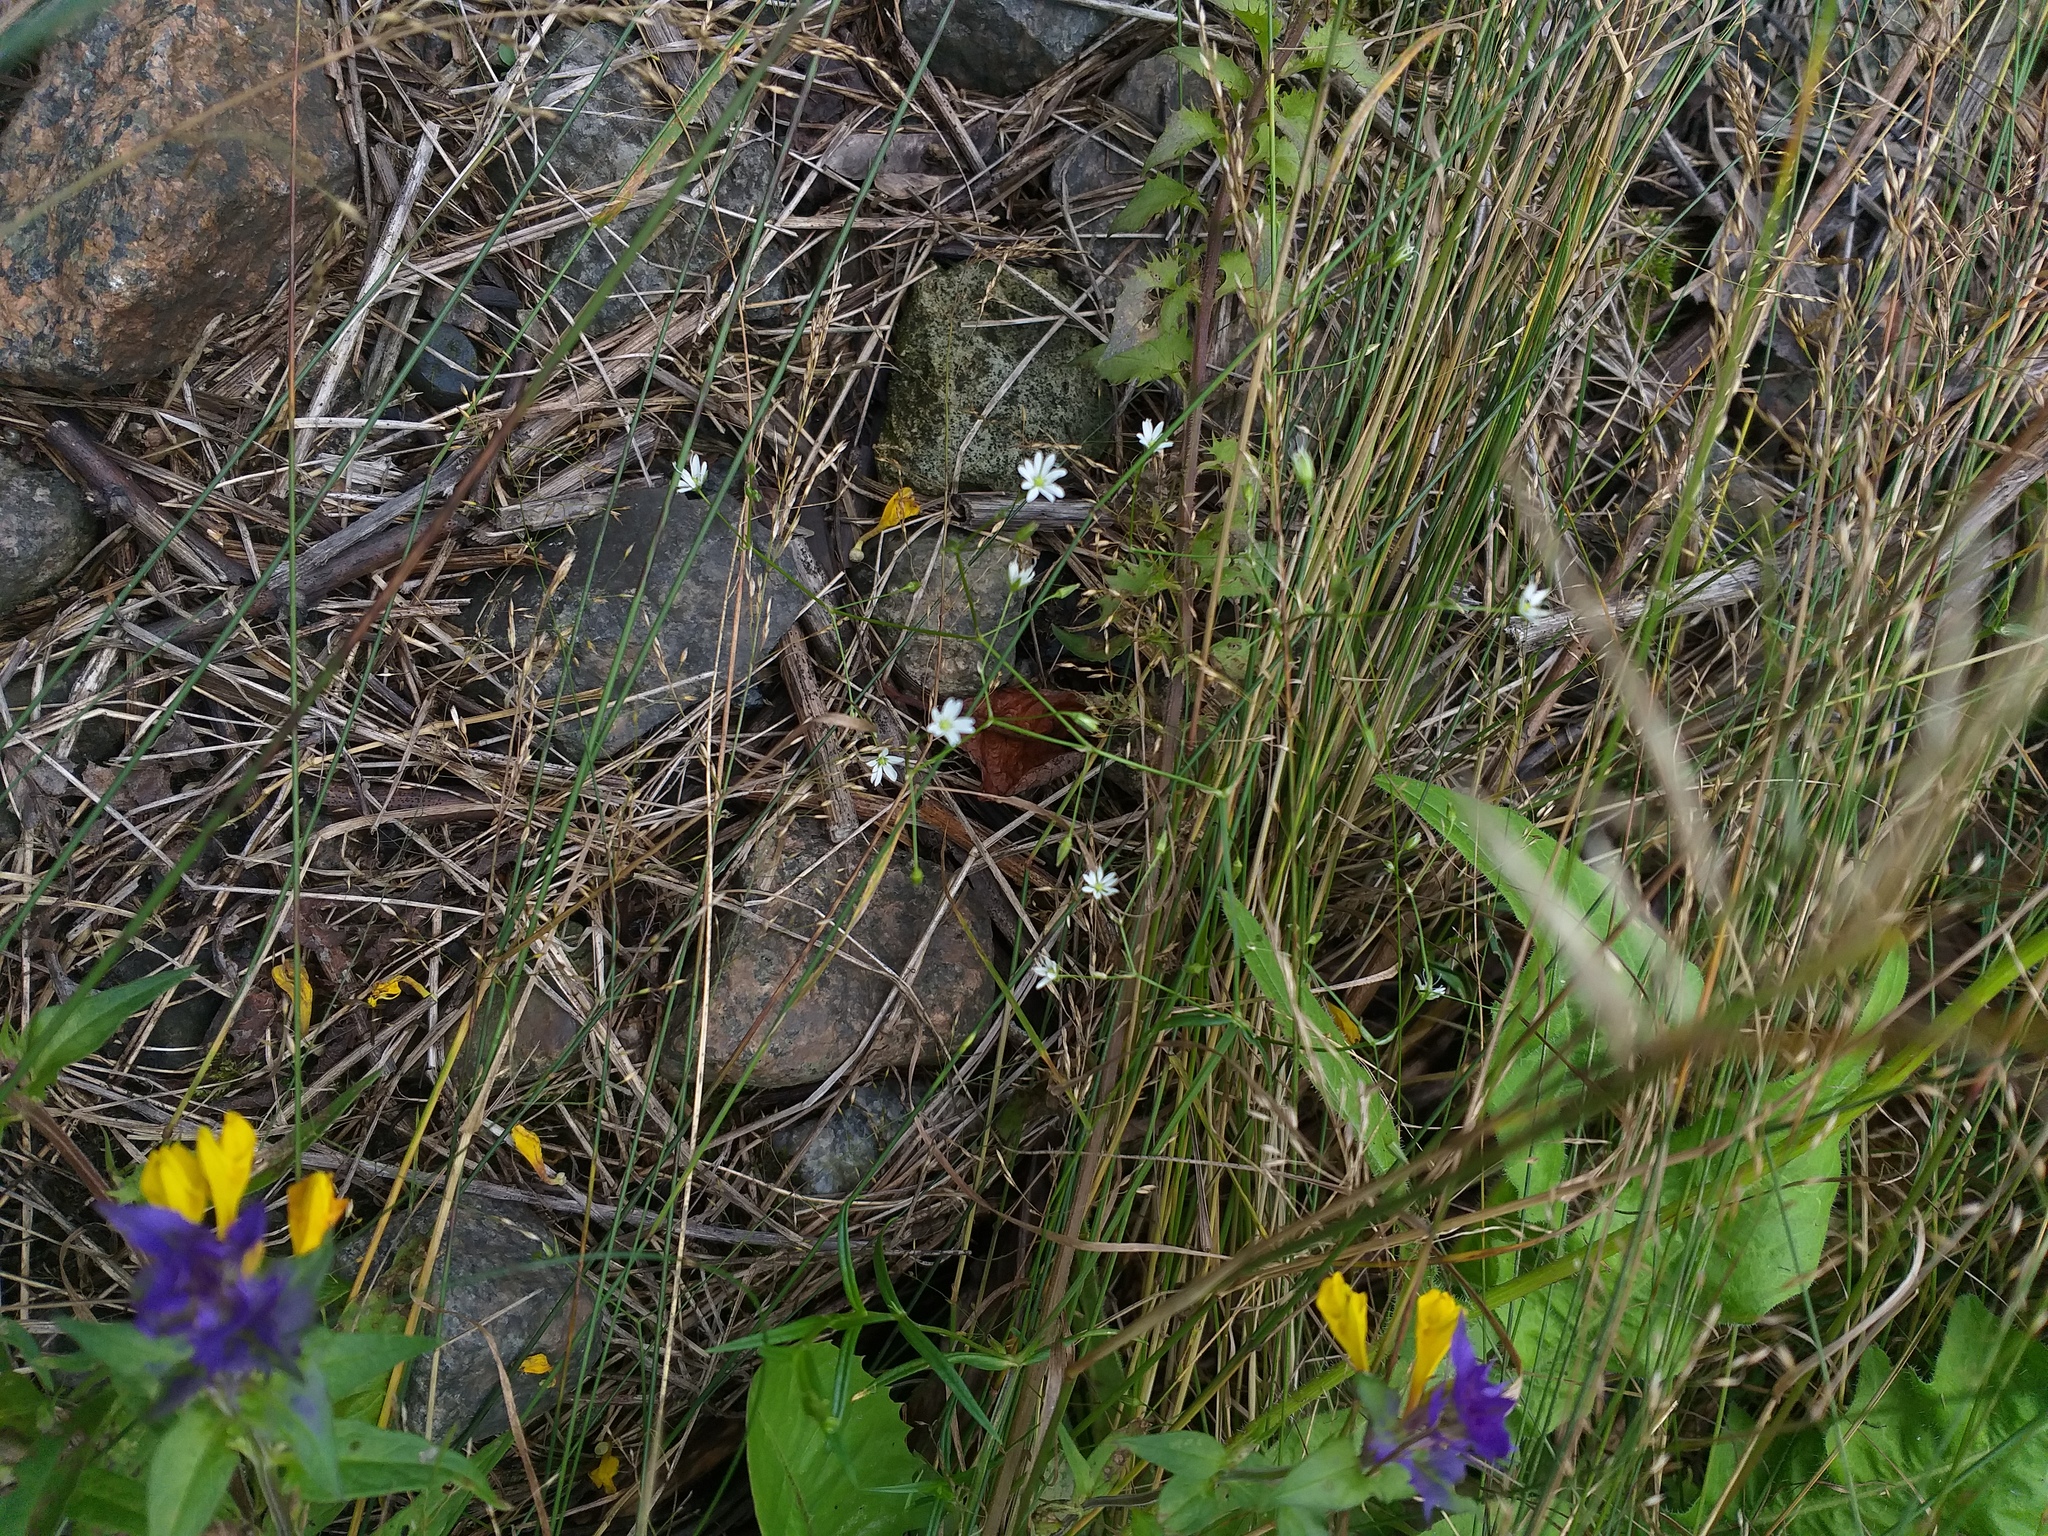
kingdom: Plantae
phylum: Tracheophyta
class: Magnoliopsida
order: Caryophyllales
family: Caryophyllaceae
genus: Stellaria
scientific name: Stellaria graminea
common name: Grass-like starwort
